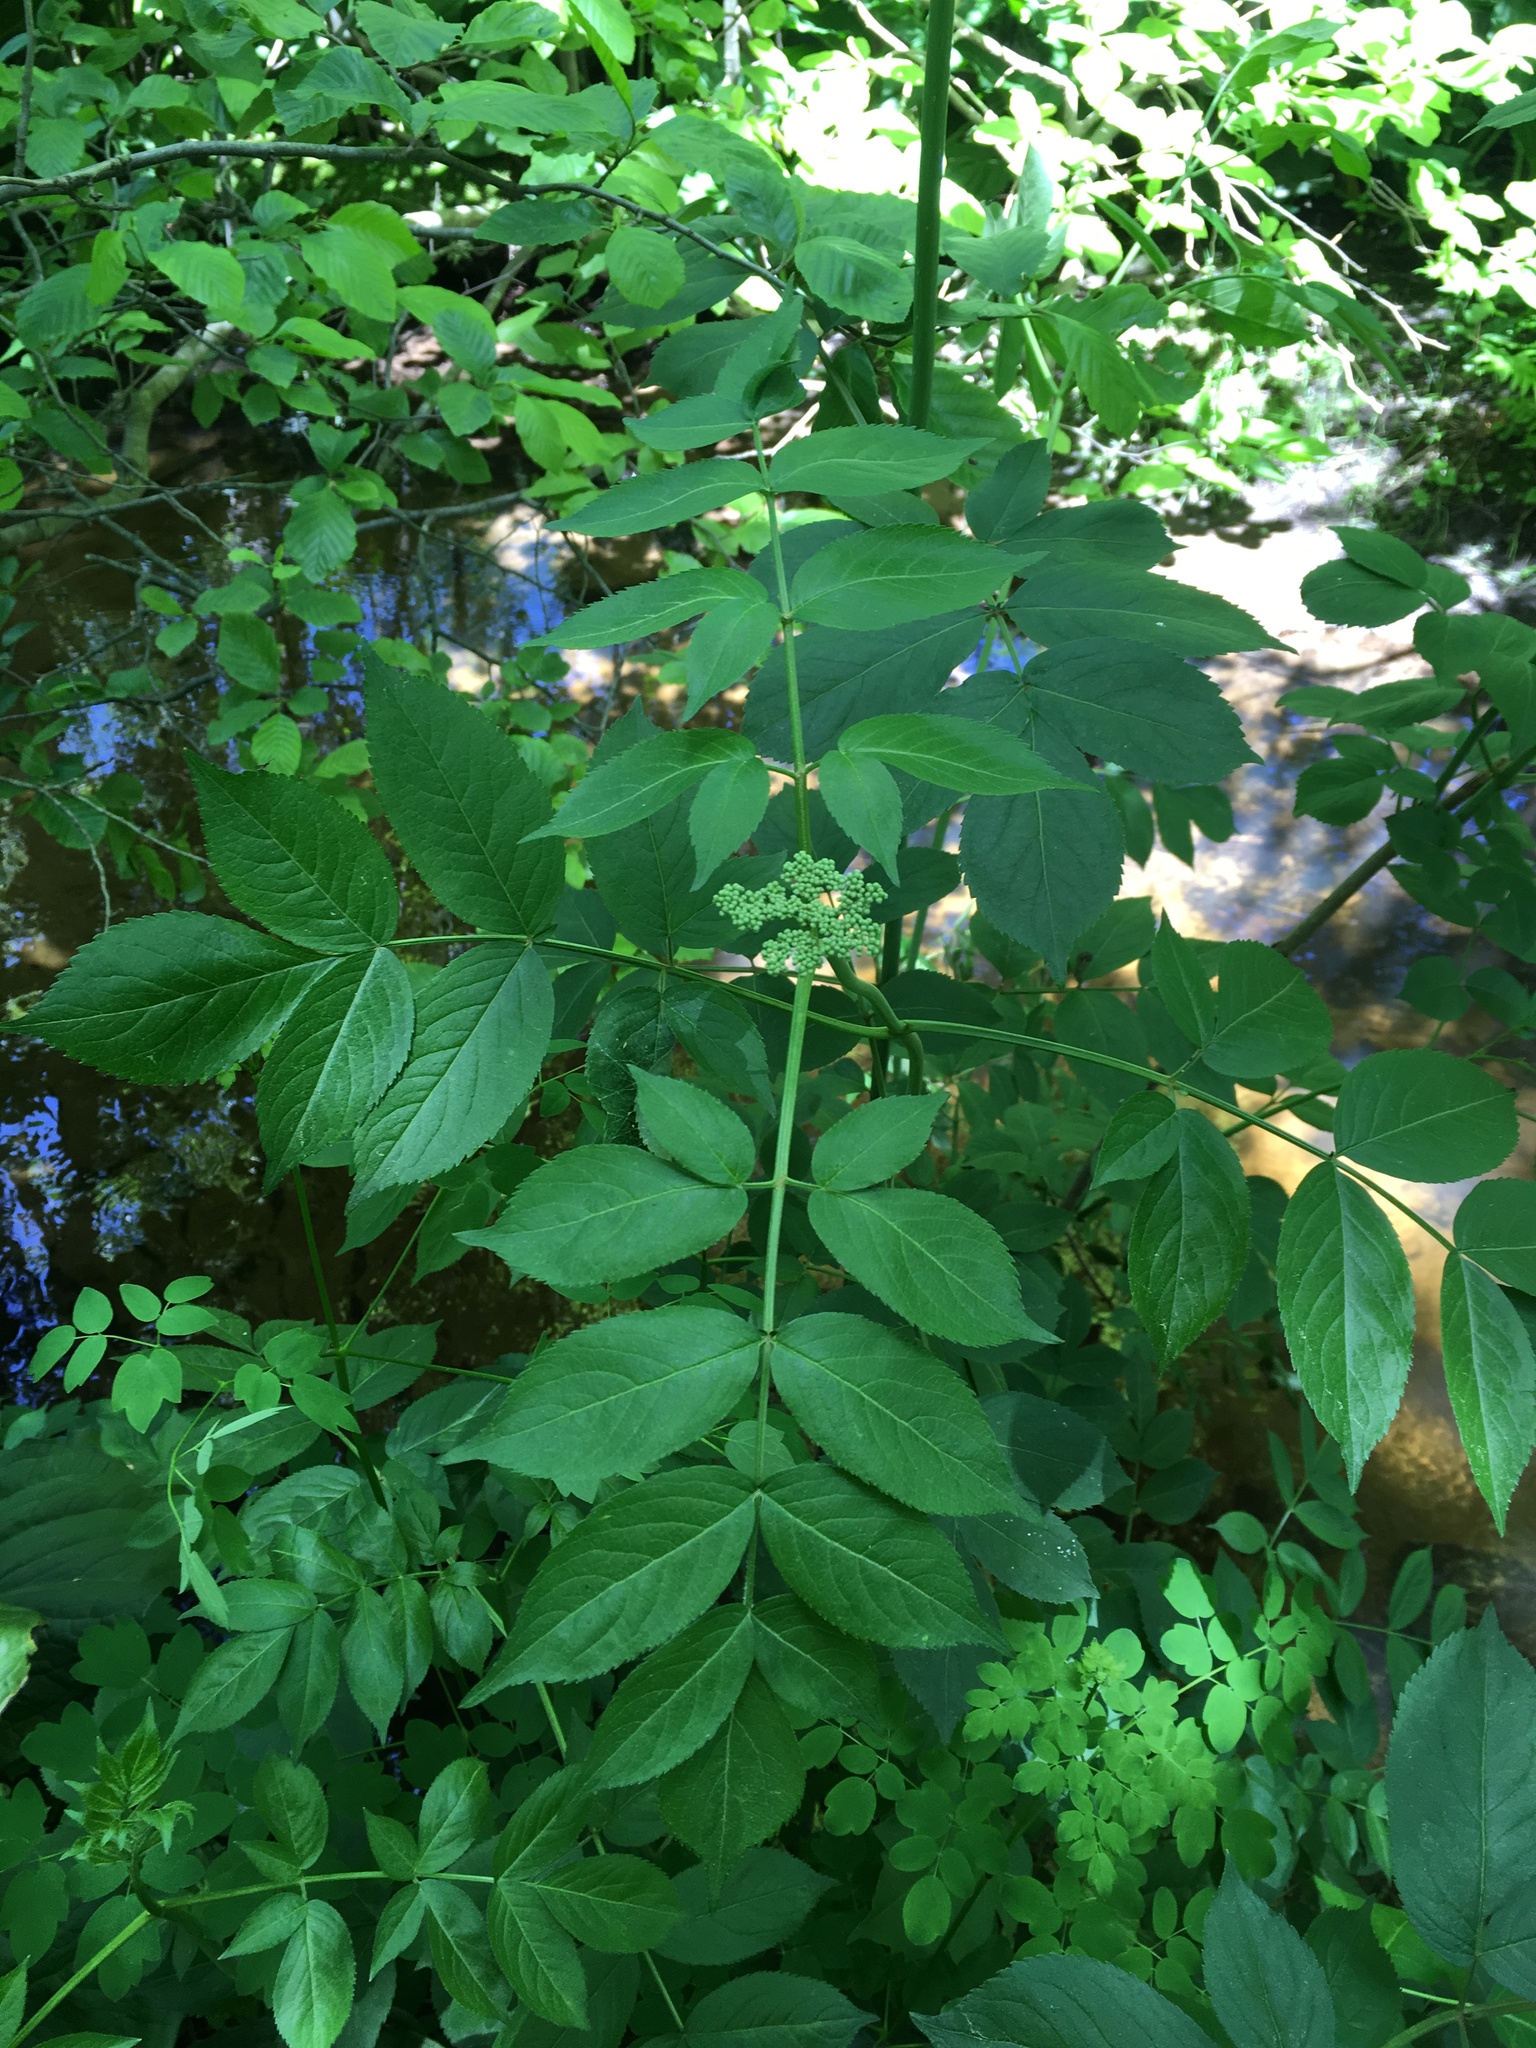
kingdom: Plantae
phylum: Tracheophyta
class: Magnoliopsida
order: Dipsacales
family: Viburnaceae
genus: Sambucus
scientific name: Sambucus canadensis
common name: American elder
